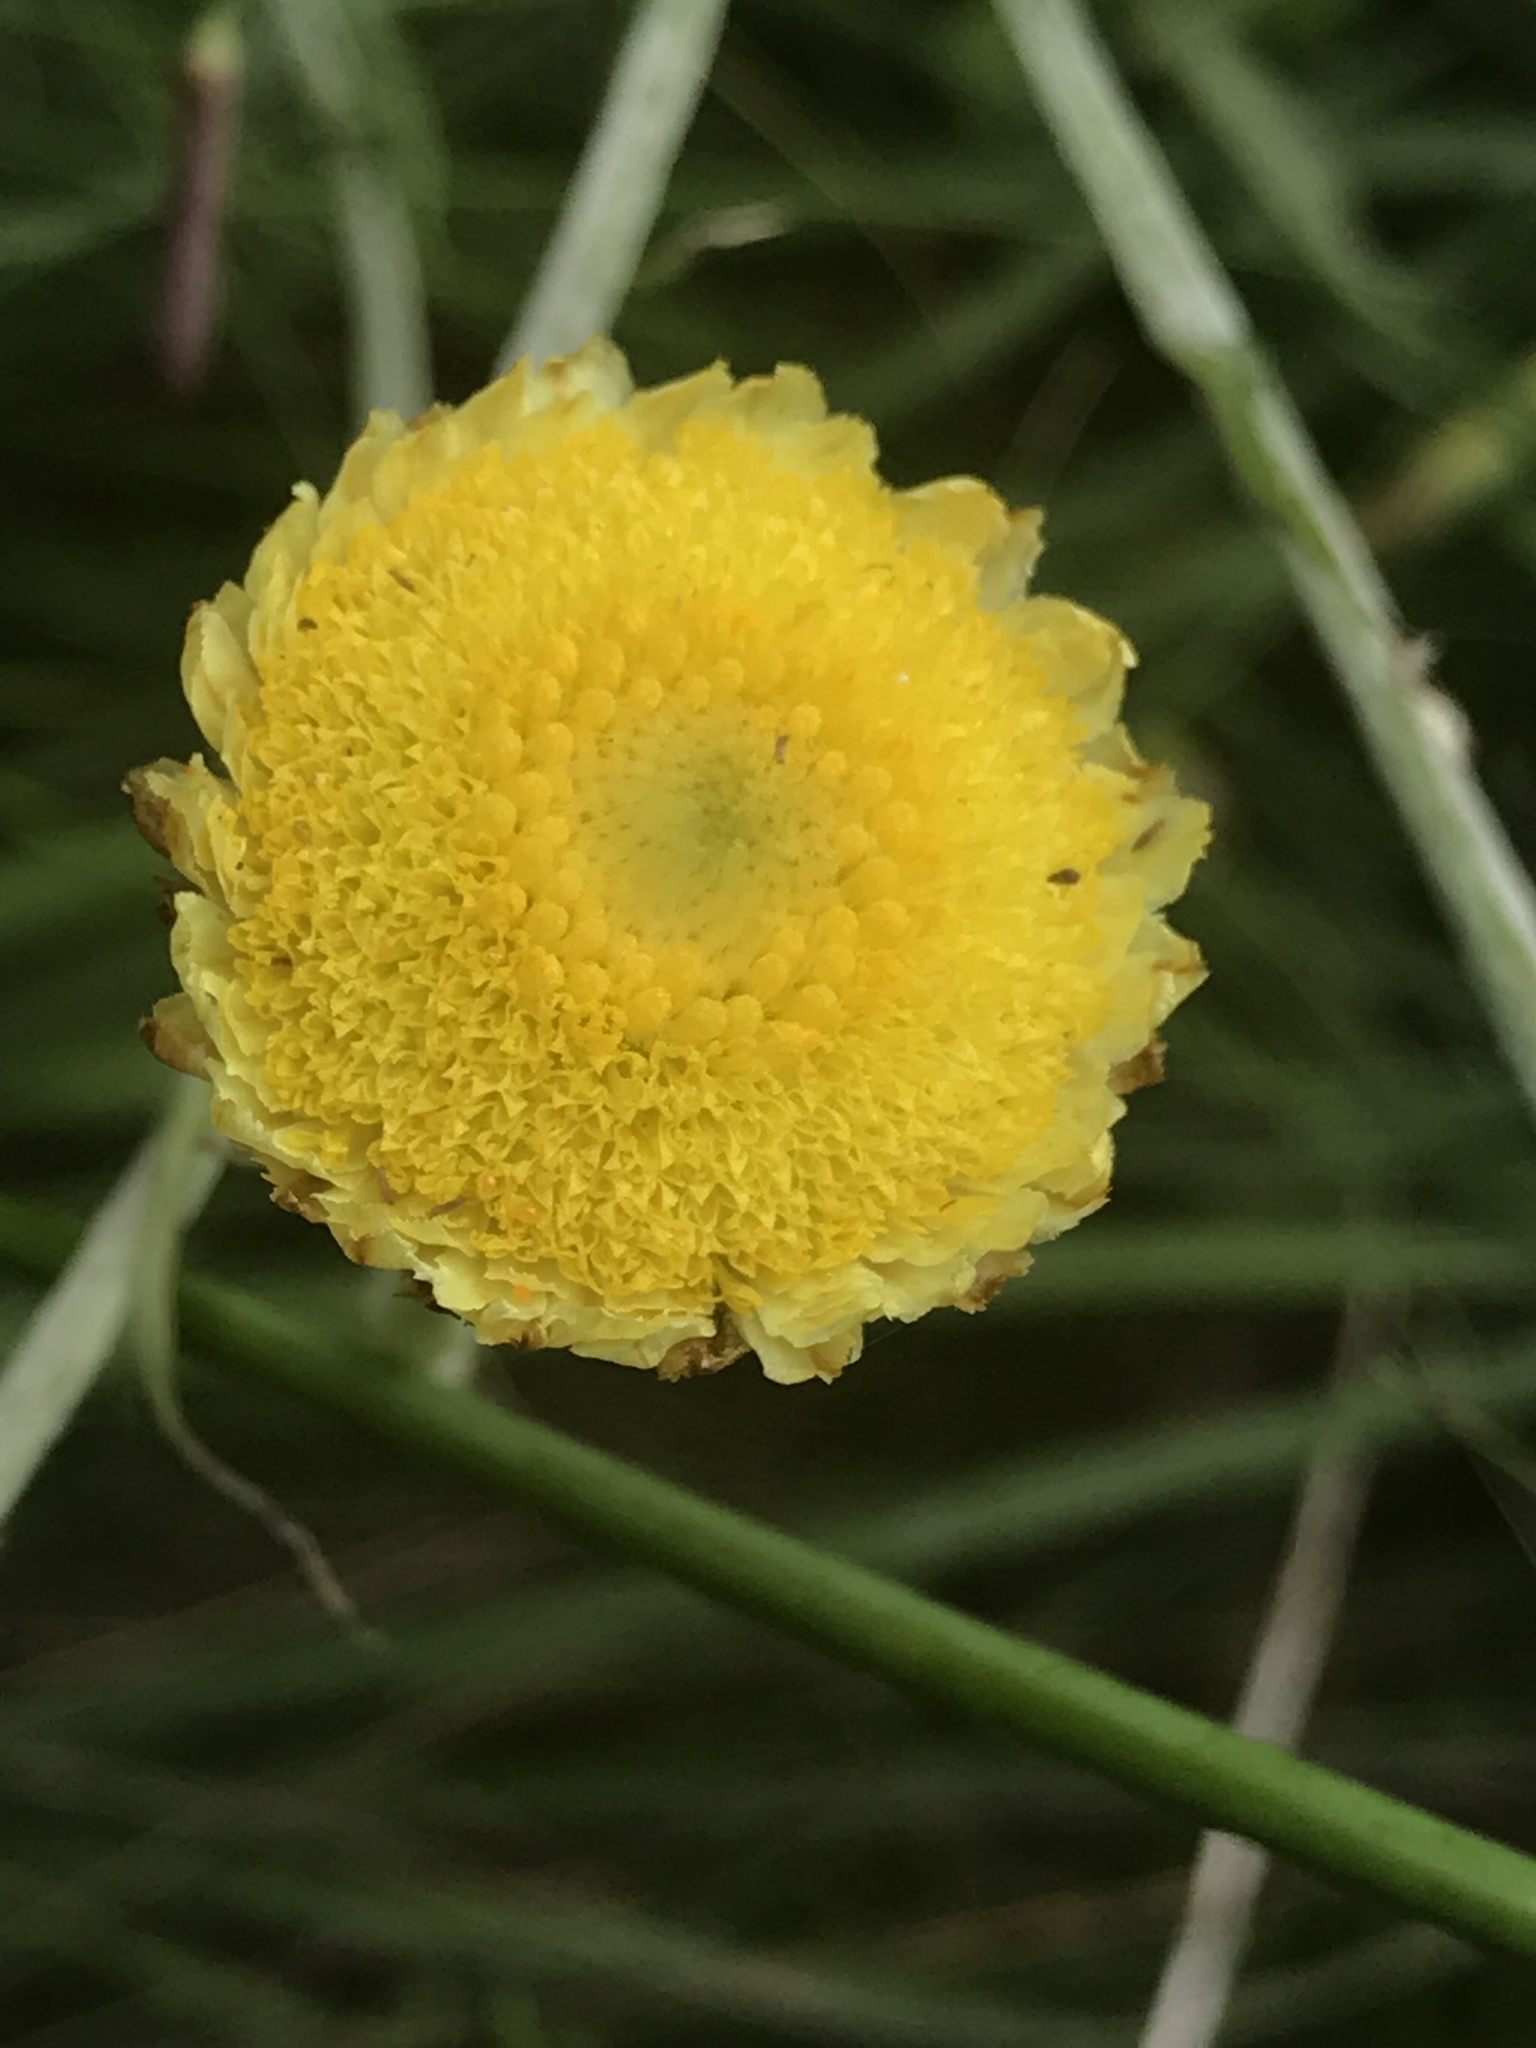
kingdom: Plantae
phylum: Tracheophyta
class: Magnoliopsida
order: Asterales
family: Asteraceae
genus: Coronidium
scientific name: Coronidium scorpioides
